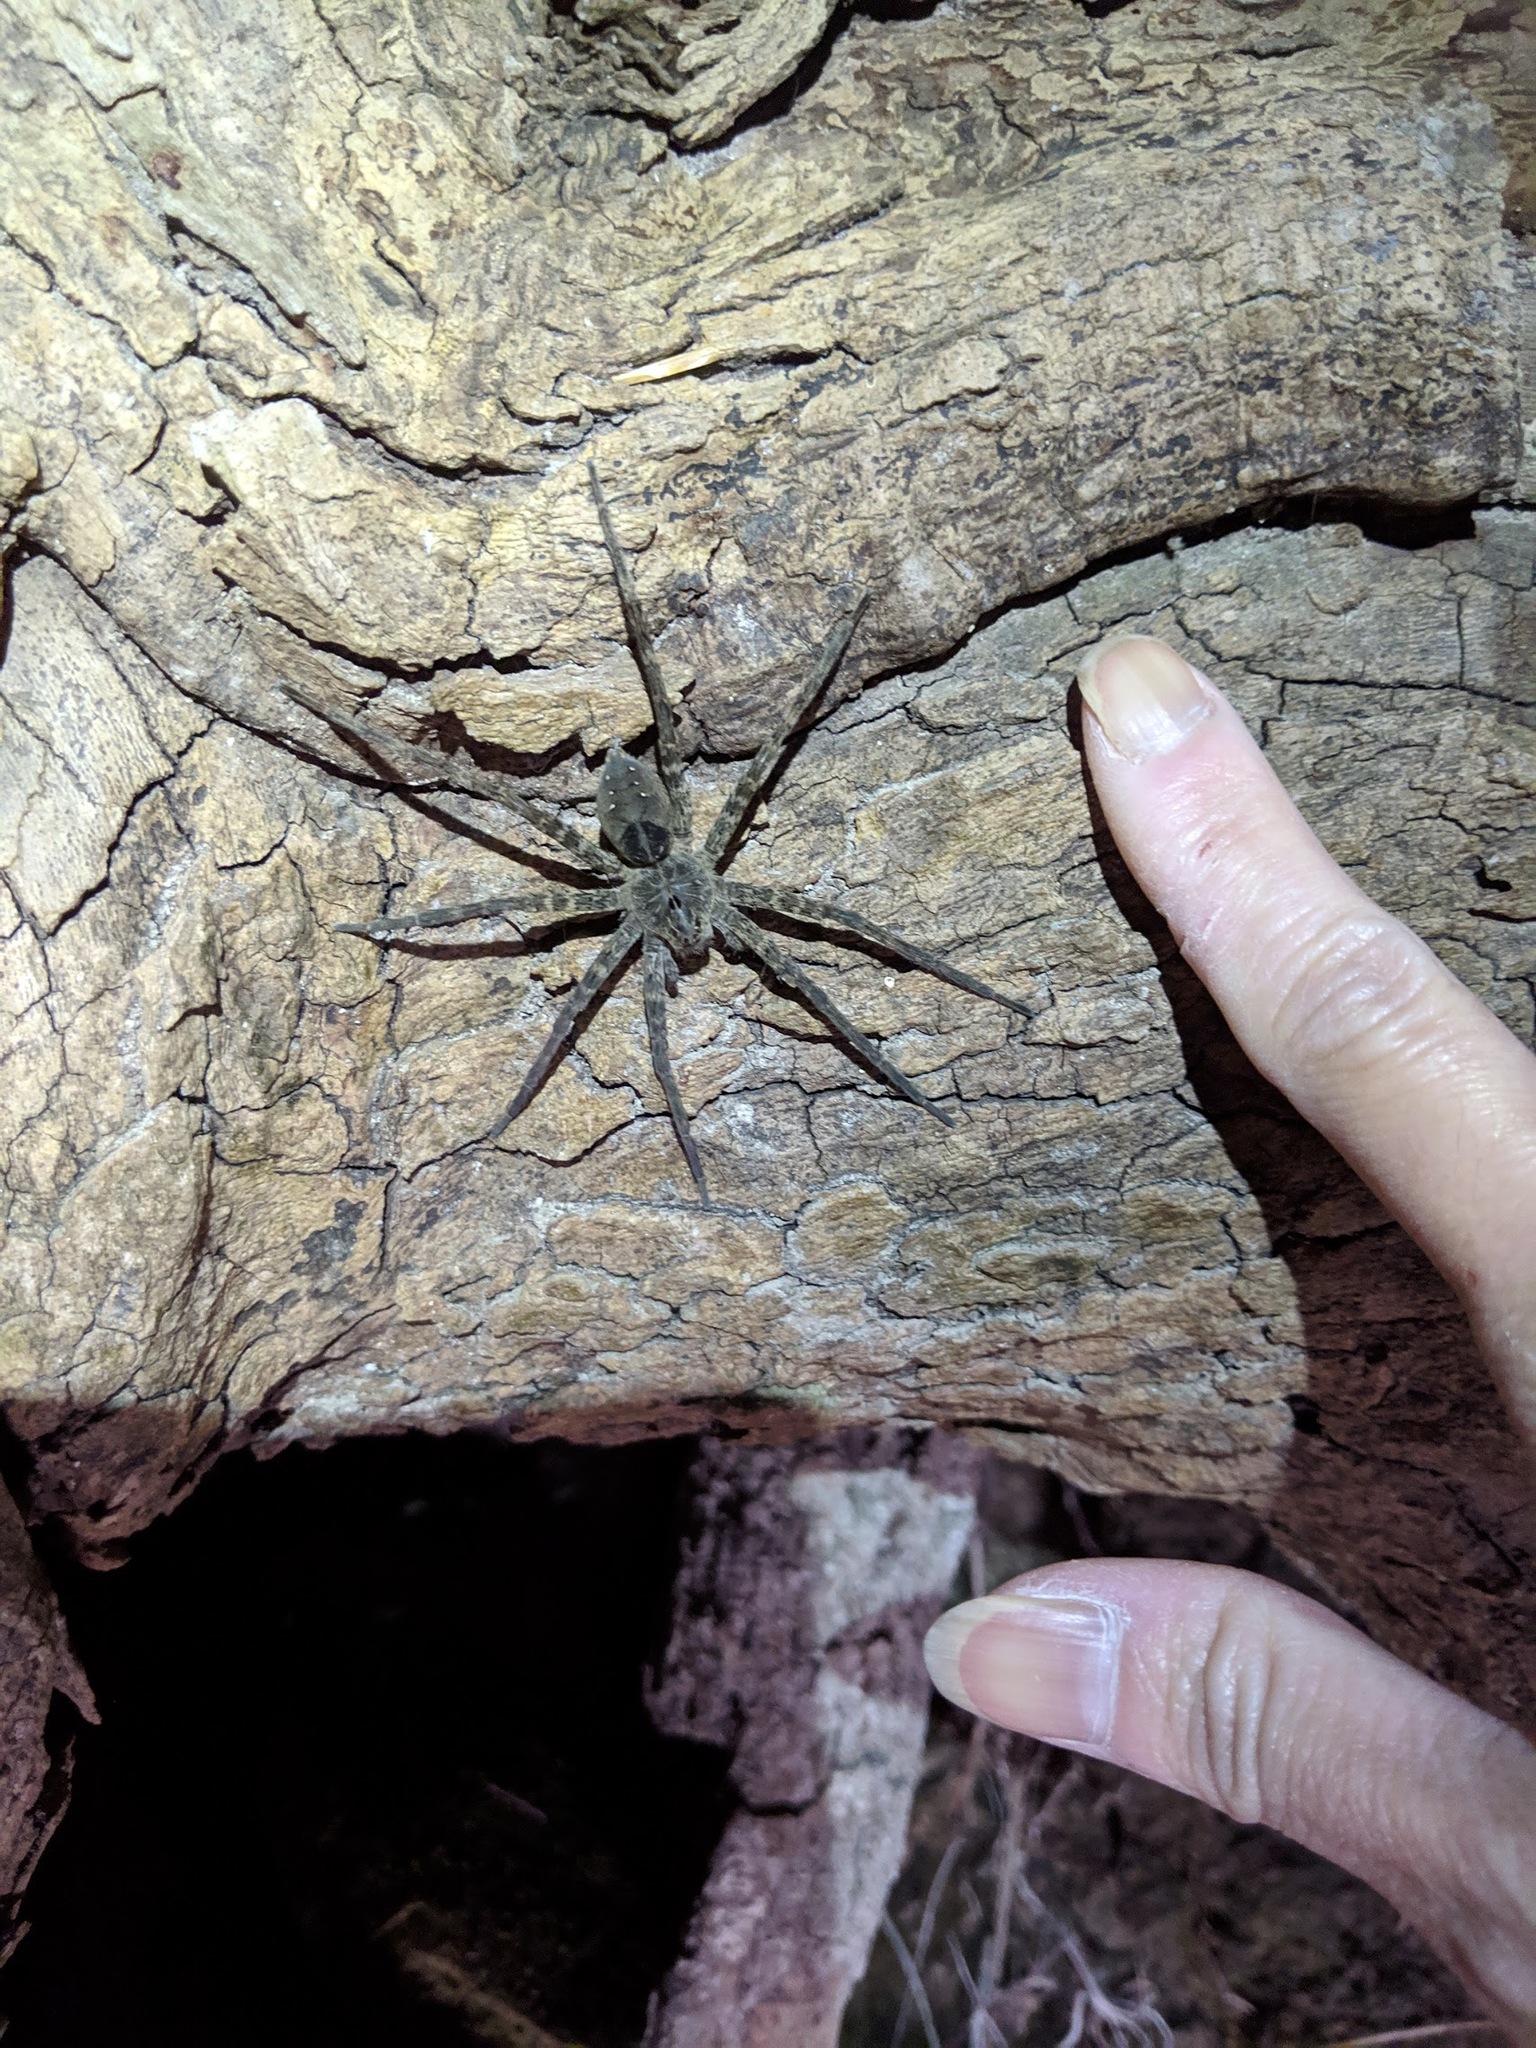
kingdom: Animalia
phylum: Arthropoda
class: Arachnida
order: Araneae
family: Pisauridae
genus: Dolomedes
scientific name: Dolomedes vittatus
